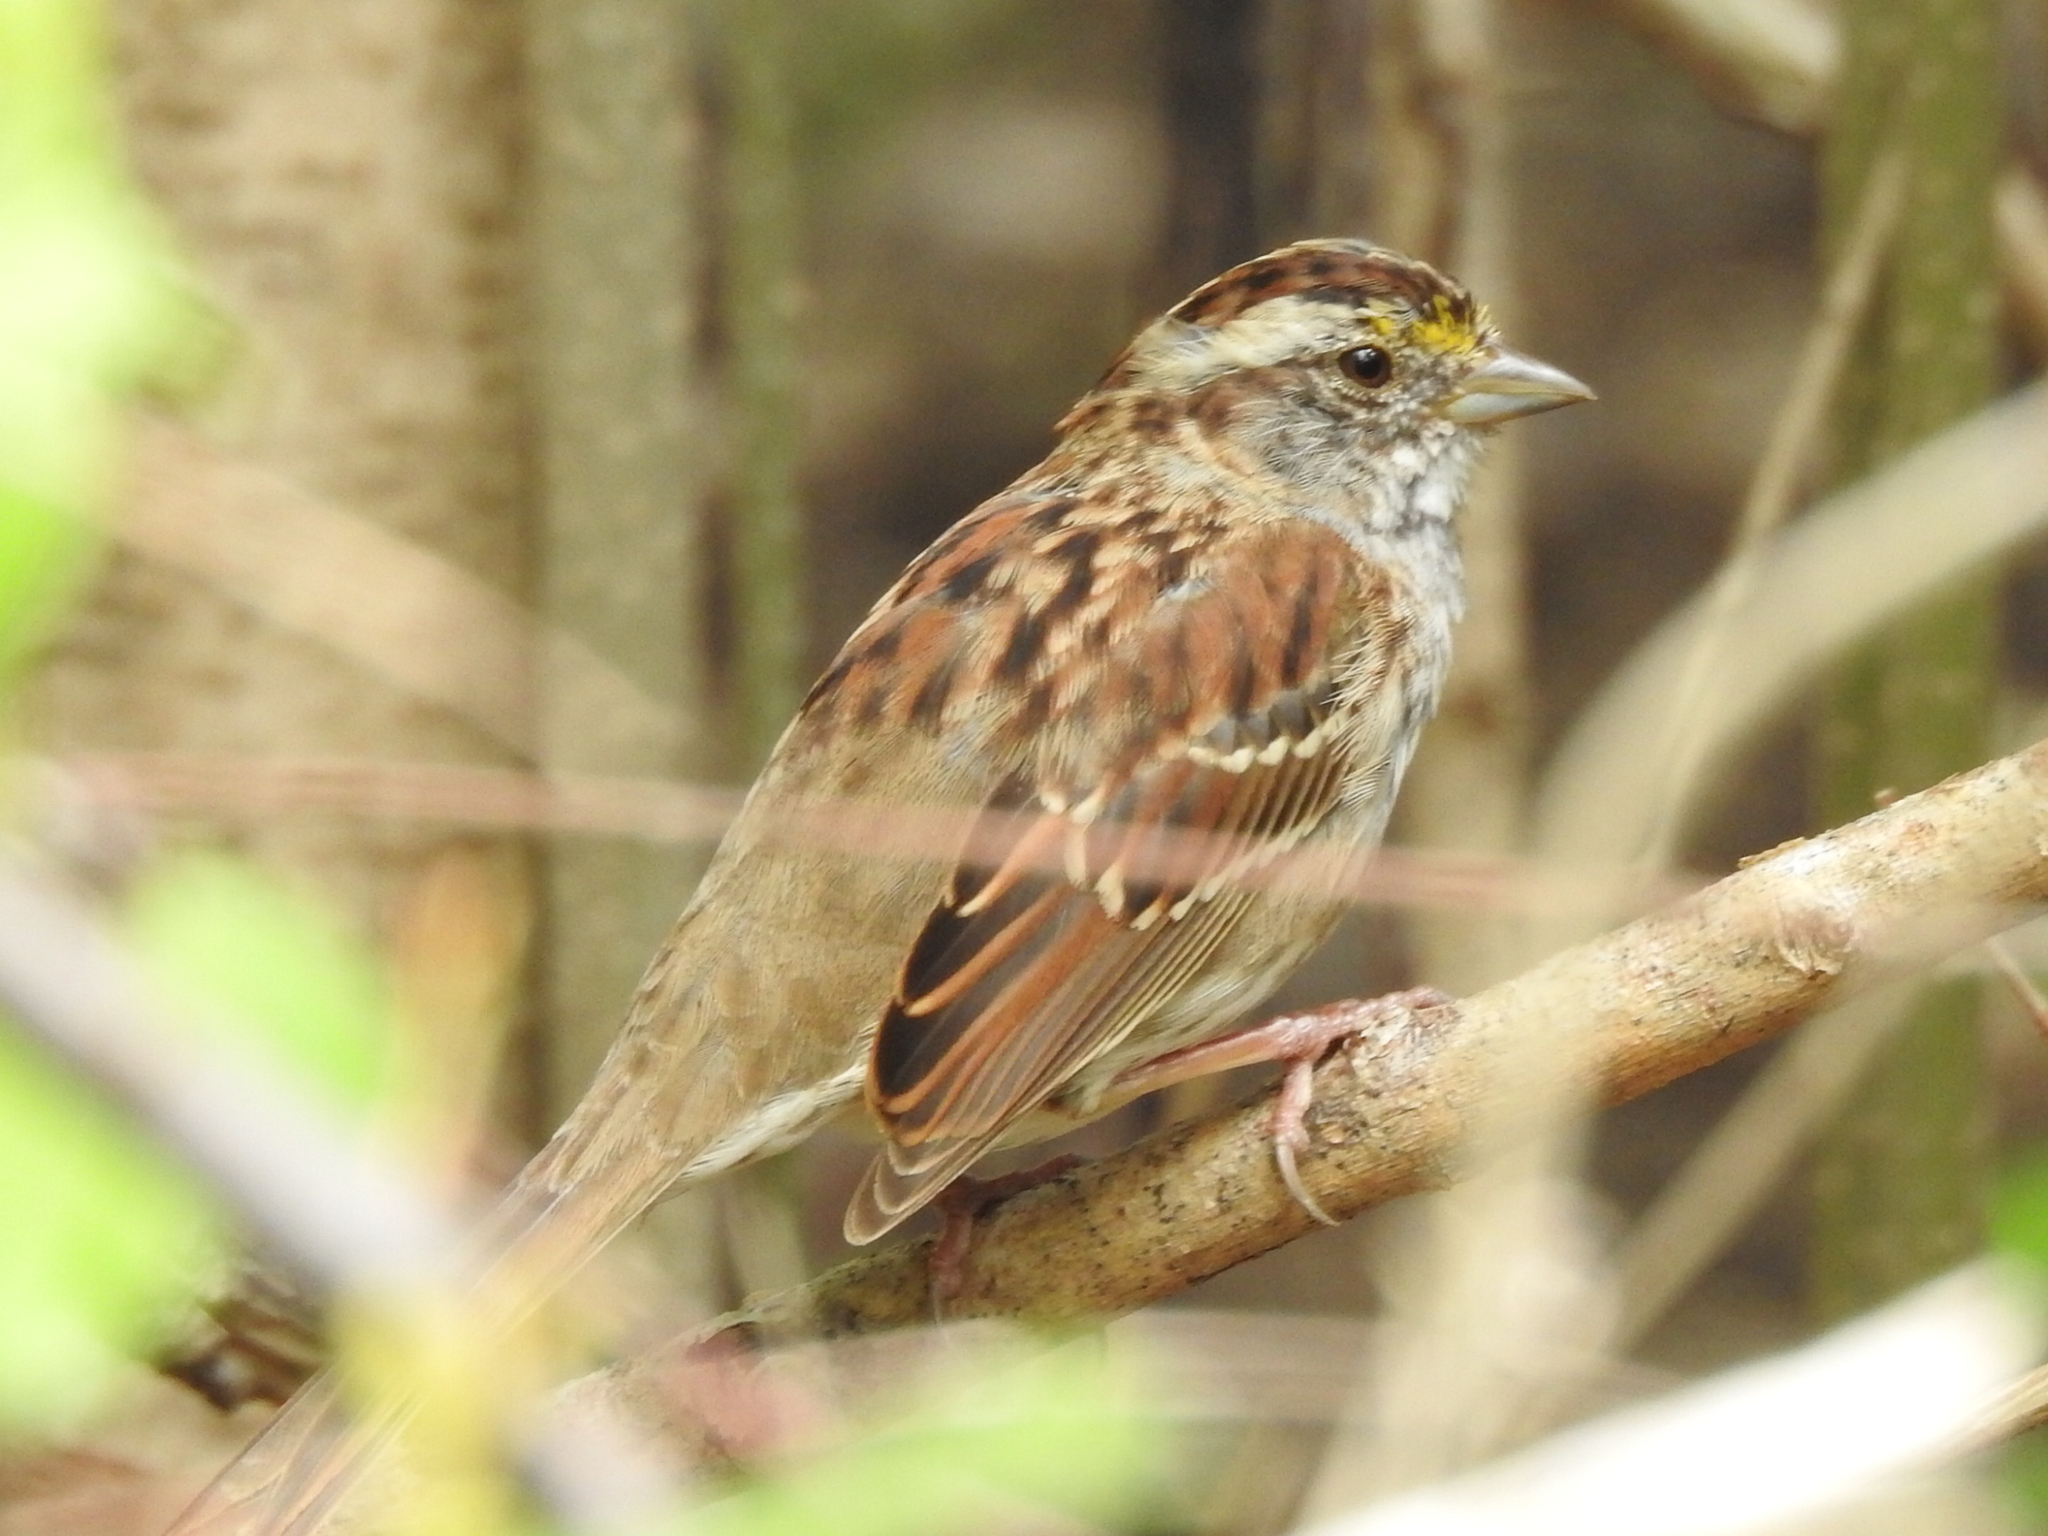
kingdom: Animalia
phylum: Chordata
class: Aves
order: Passeriformes
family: Passerellidae
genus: Zonotrichia
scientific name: Zonotrichia albicollis
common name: White-throated sparrow
